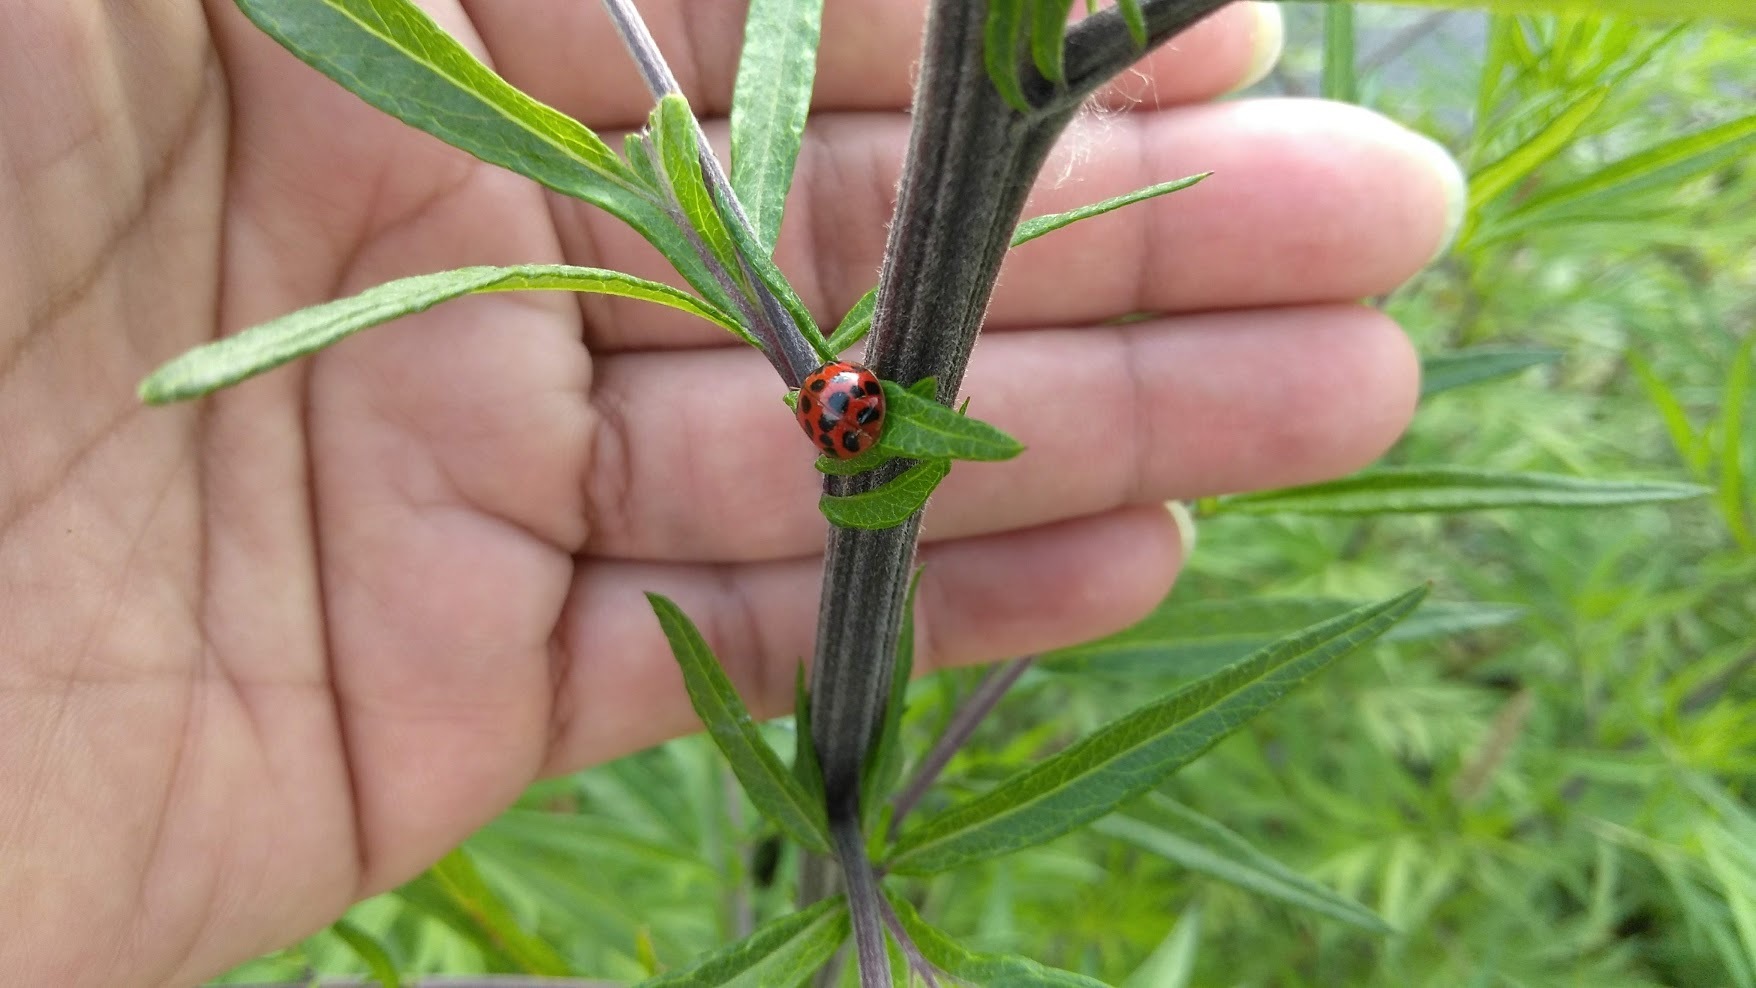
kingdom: Animalia
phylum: Arthropoda
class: Insecta
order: Coleoptera
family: Coccinellidae
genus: Harmonia
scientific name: Harmonia axyridis
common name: Harlequin ladybird
